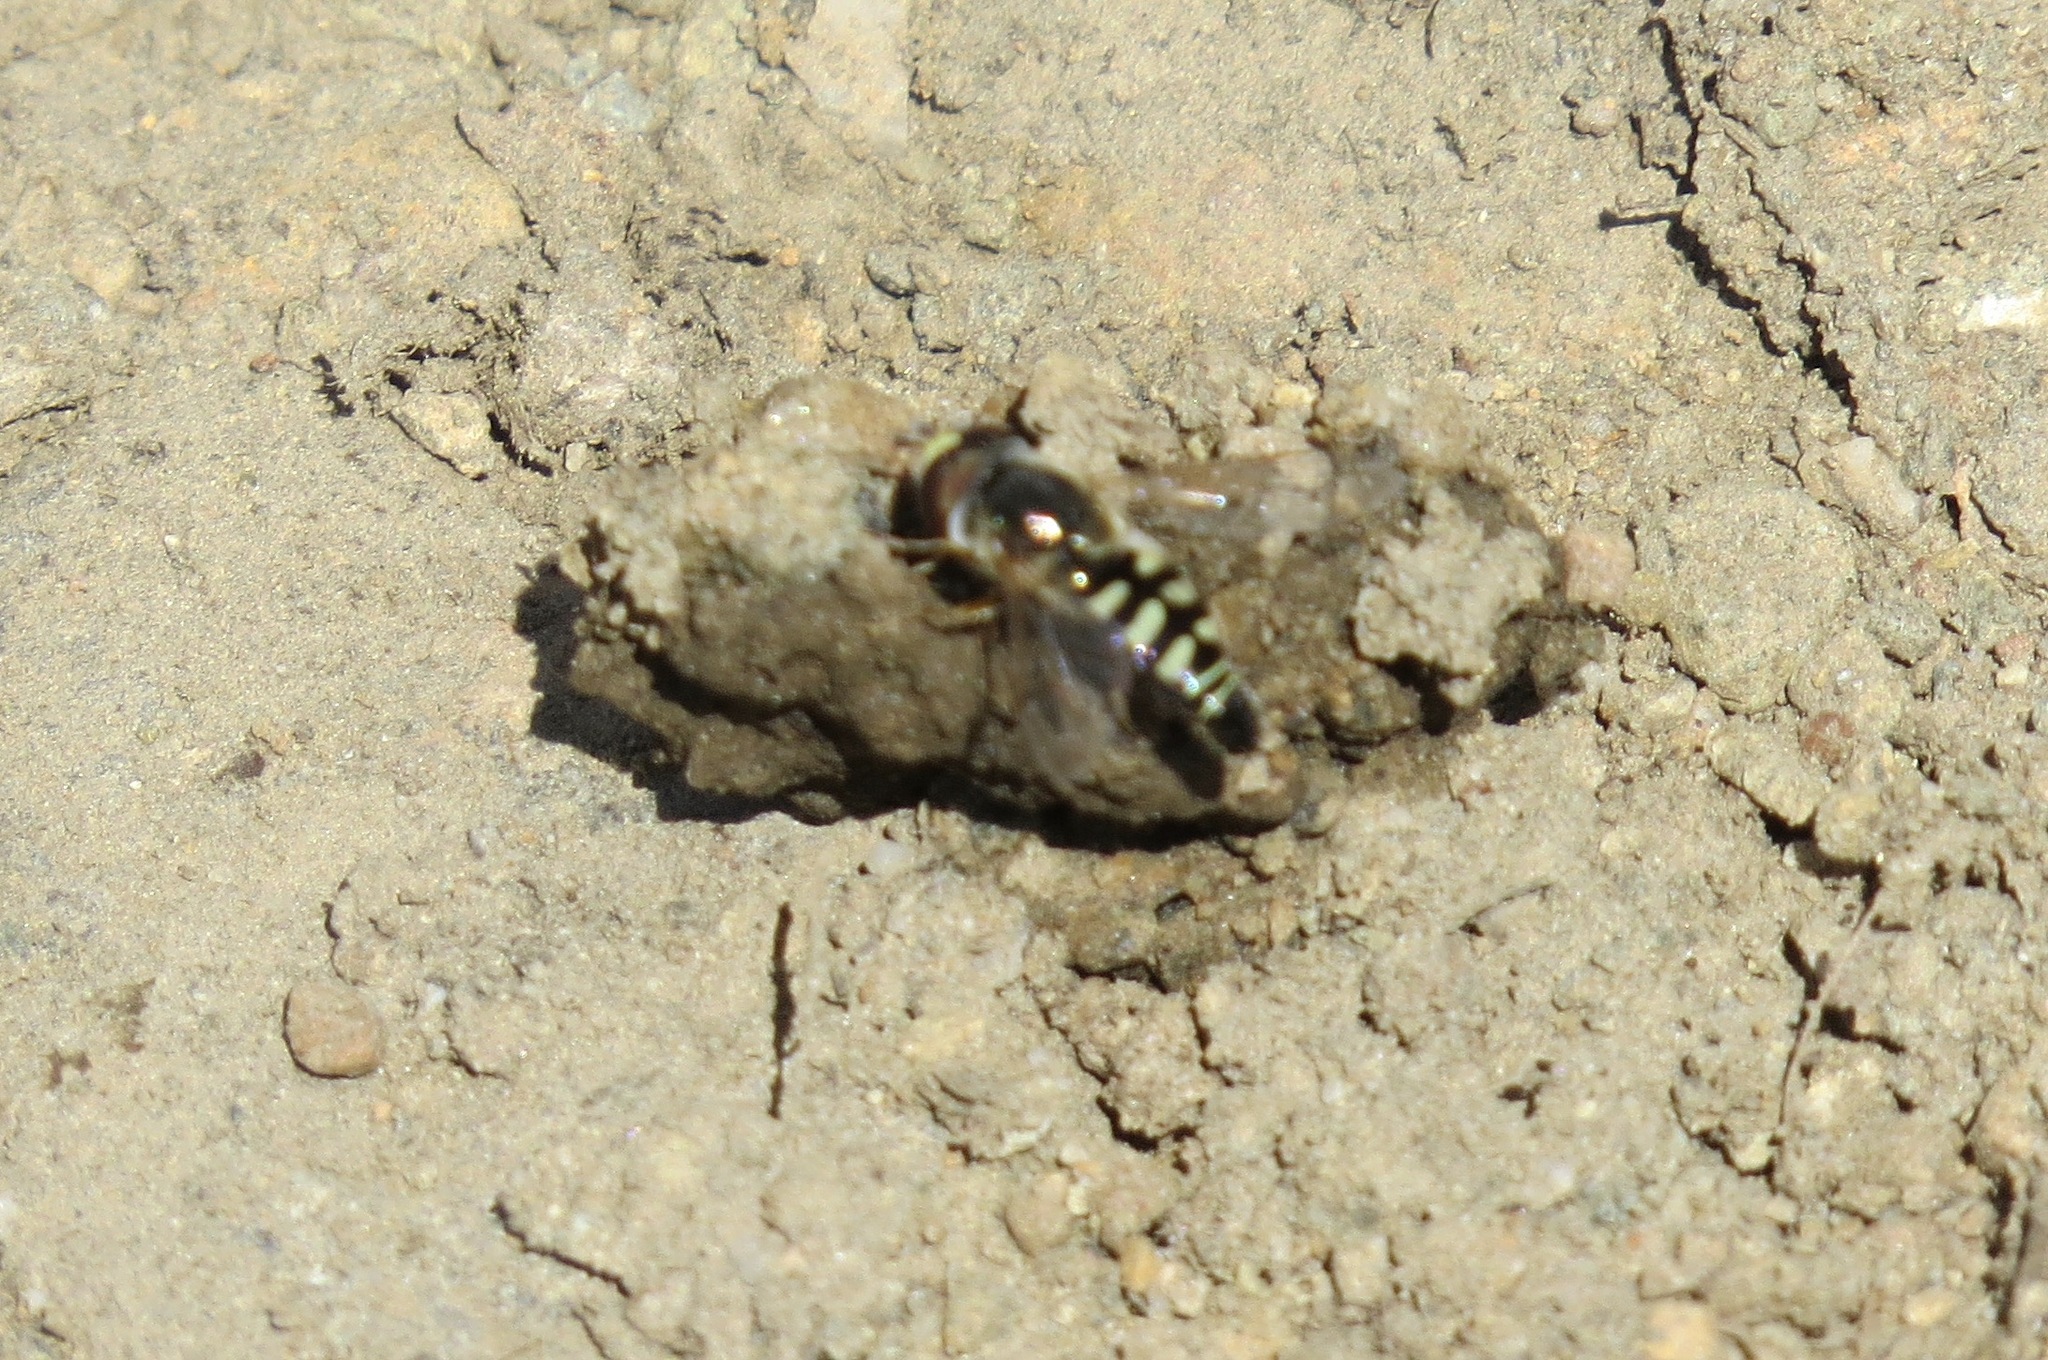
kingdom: Animalia
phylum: Arthropoda
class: Insecta
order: Diptera
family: Syrphidae
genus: Eupeodes
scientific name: Eupeodes volucris
